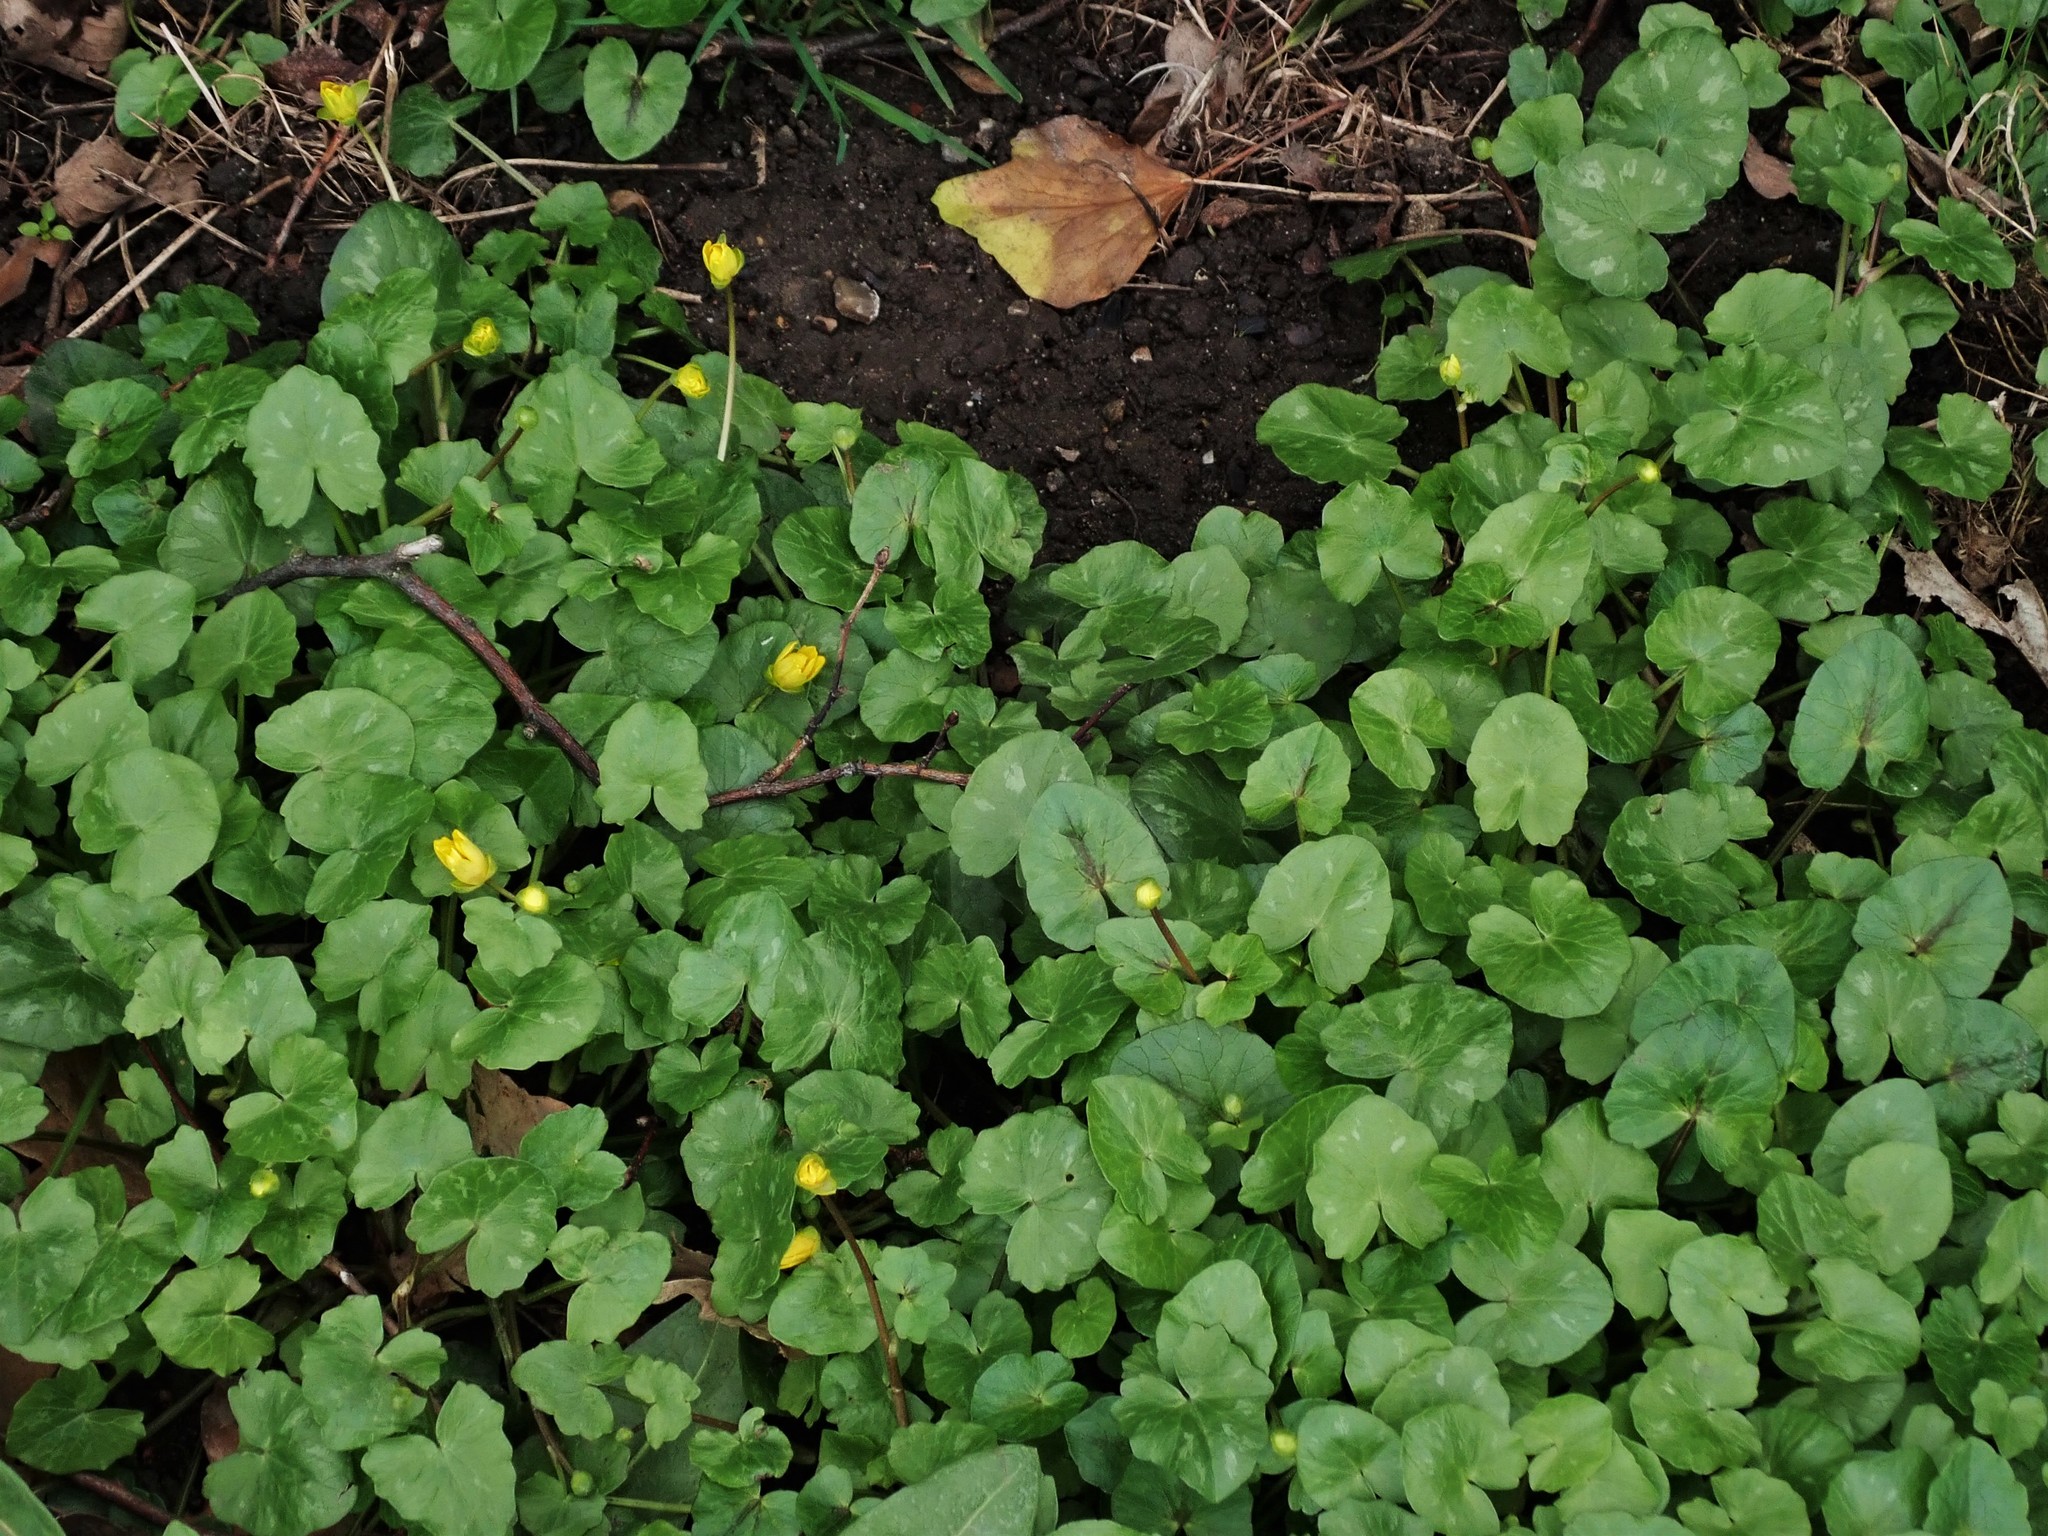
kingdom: Plantae
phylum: Tracheophyta
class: Magnoliopsida
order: Ranunculales
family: Ranunculaceae
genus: Ficaria
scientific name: Ficaria verna
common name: Lesser celandine
